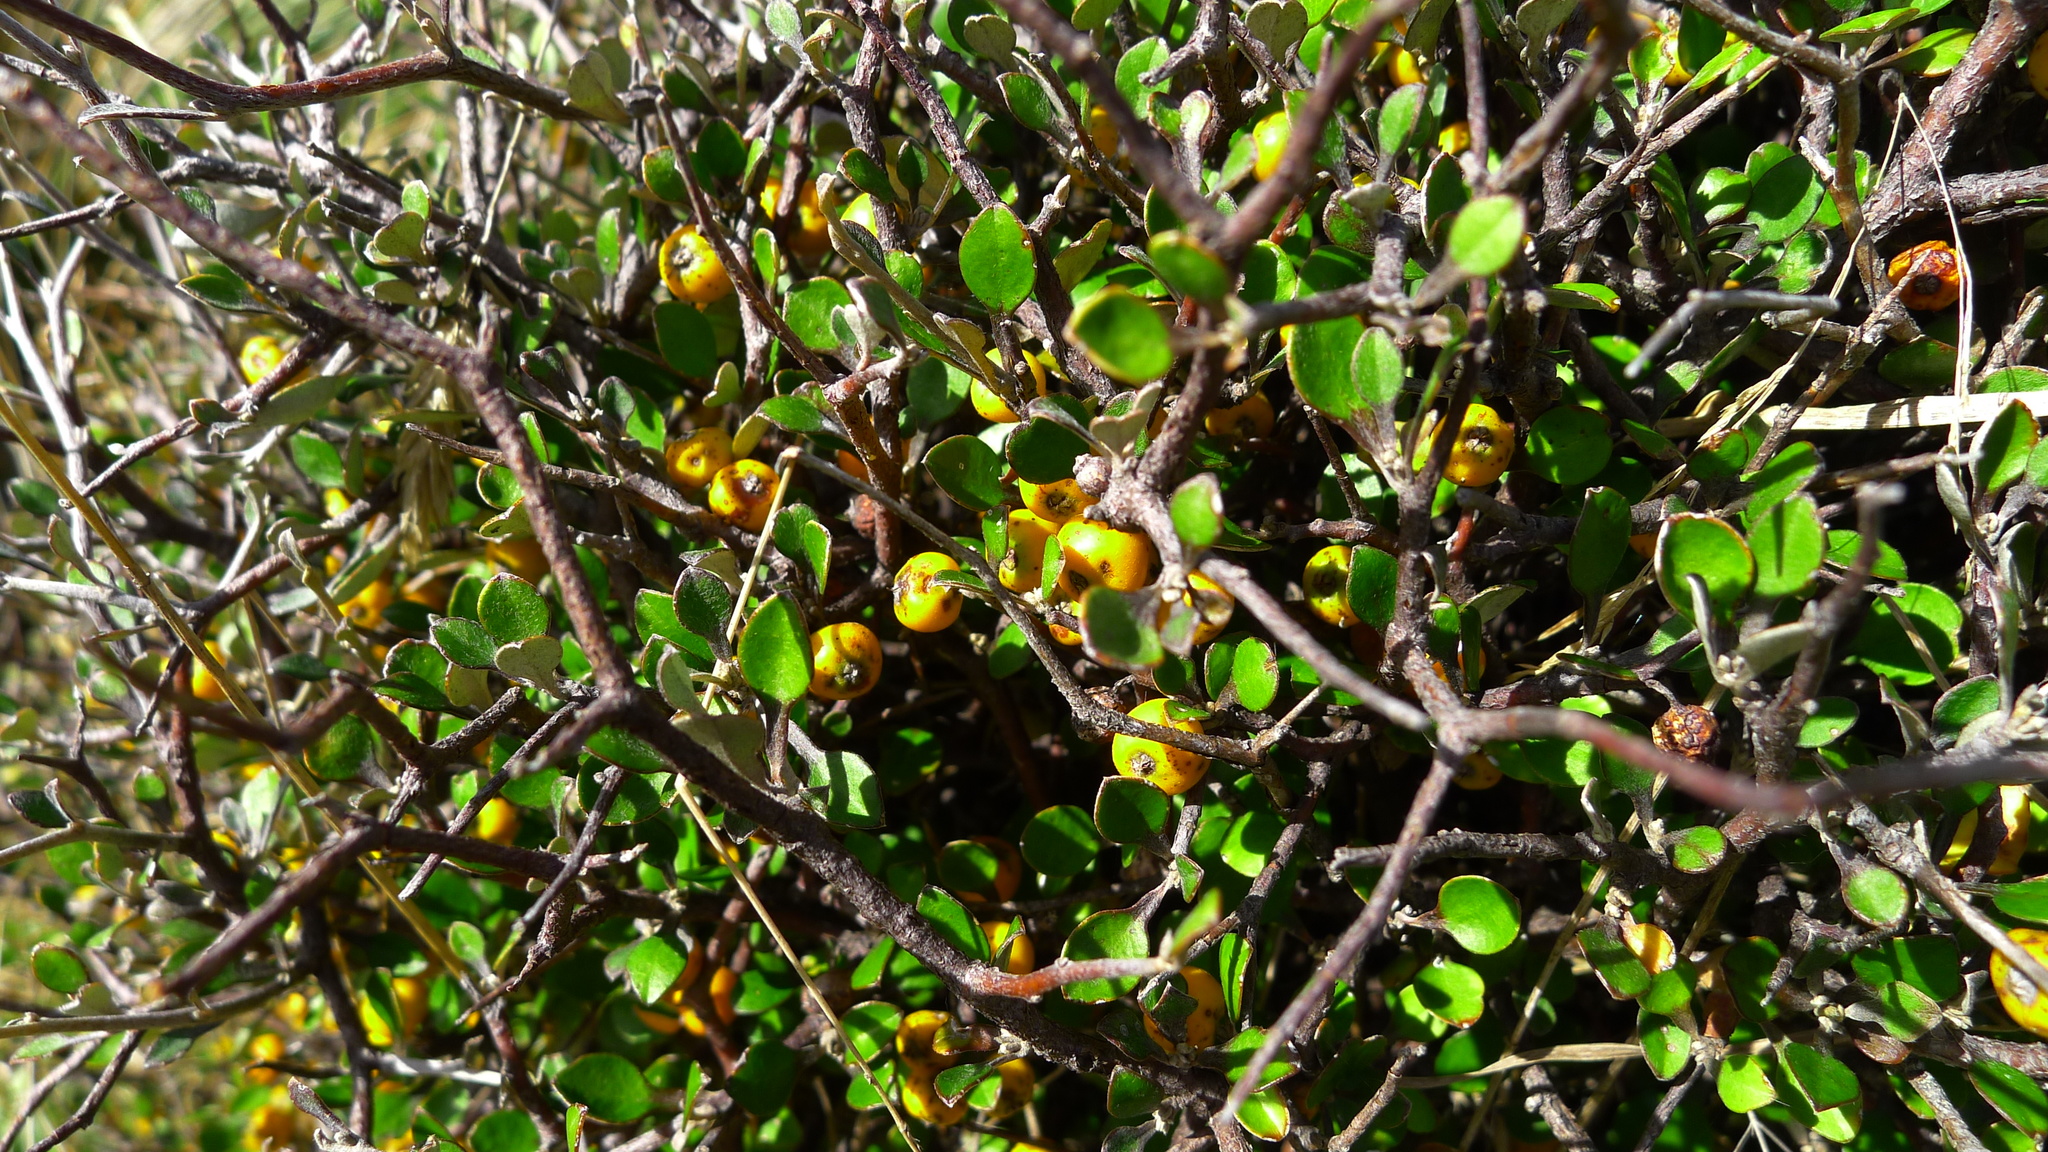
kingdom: Plantae
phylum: Tracheophyta
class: Magnoliopsida
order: Asterales
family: Argophyllaceae
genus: Corokia
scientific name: Corokia cotoneaster
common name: Wire nettingbush
